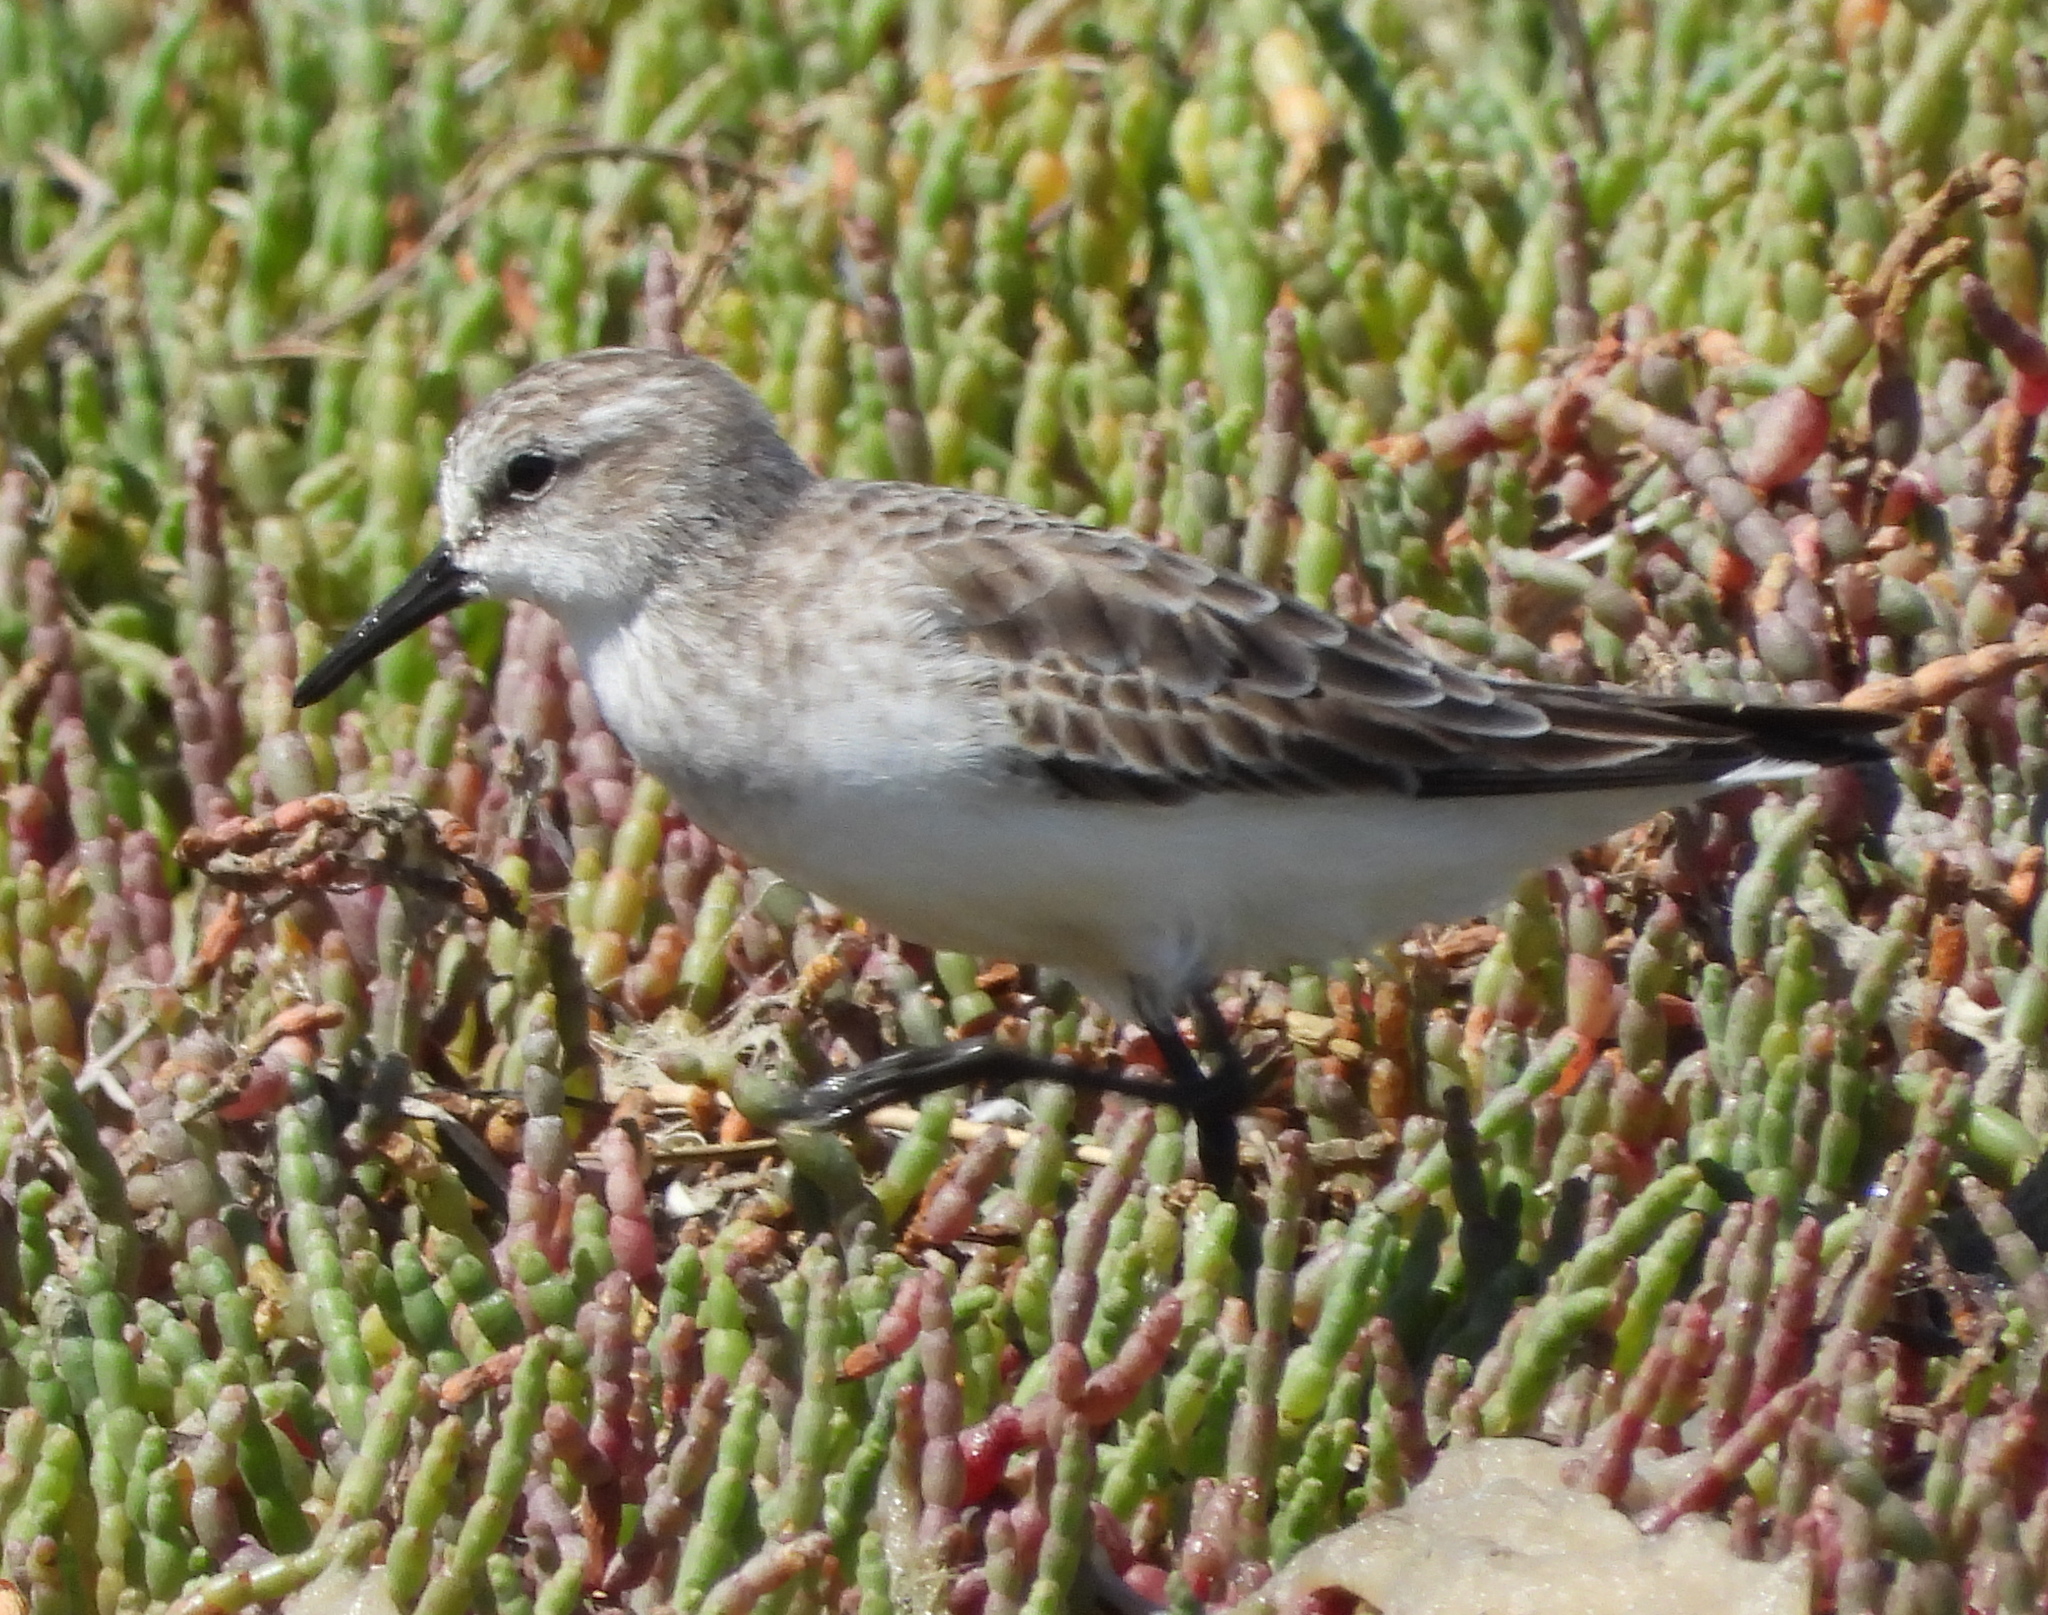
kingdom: Animalia
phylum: Chordata
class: Aves
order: Charadriiformes
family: Scolopacidae
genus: Calidris
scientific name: Calidris minuta
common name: Little stint
